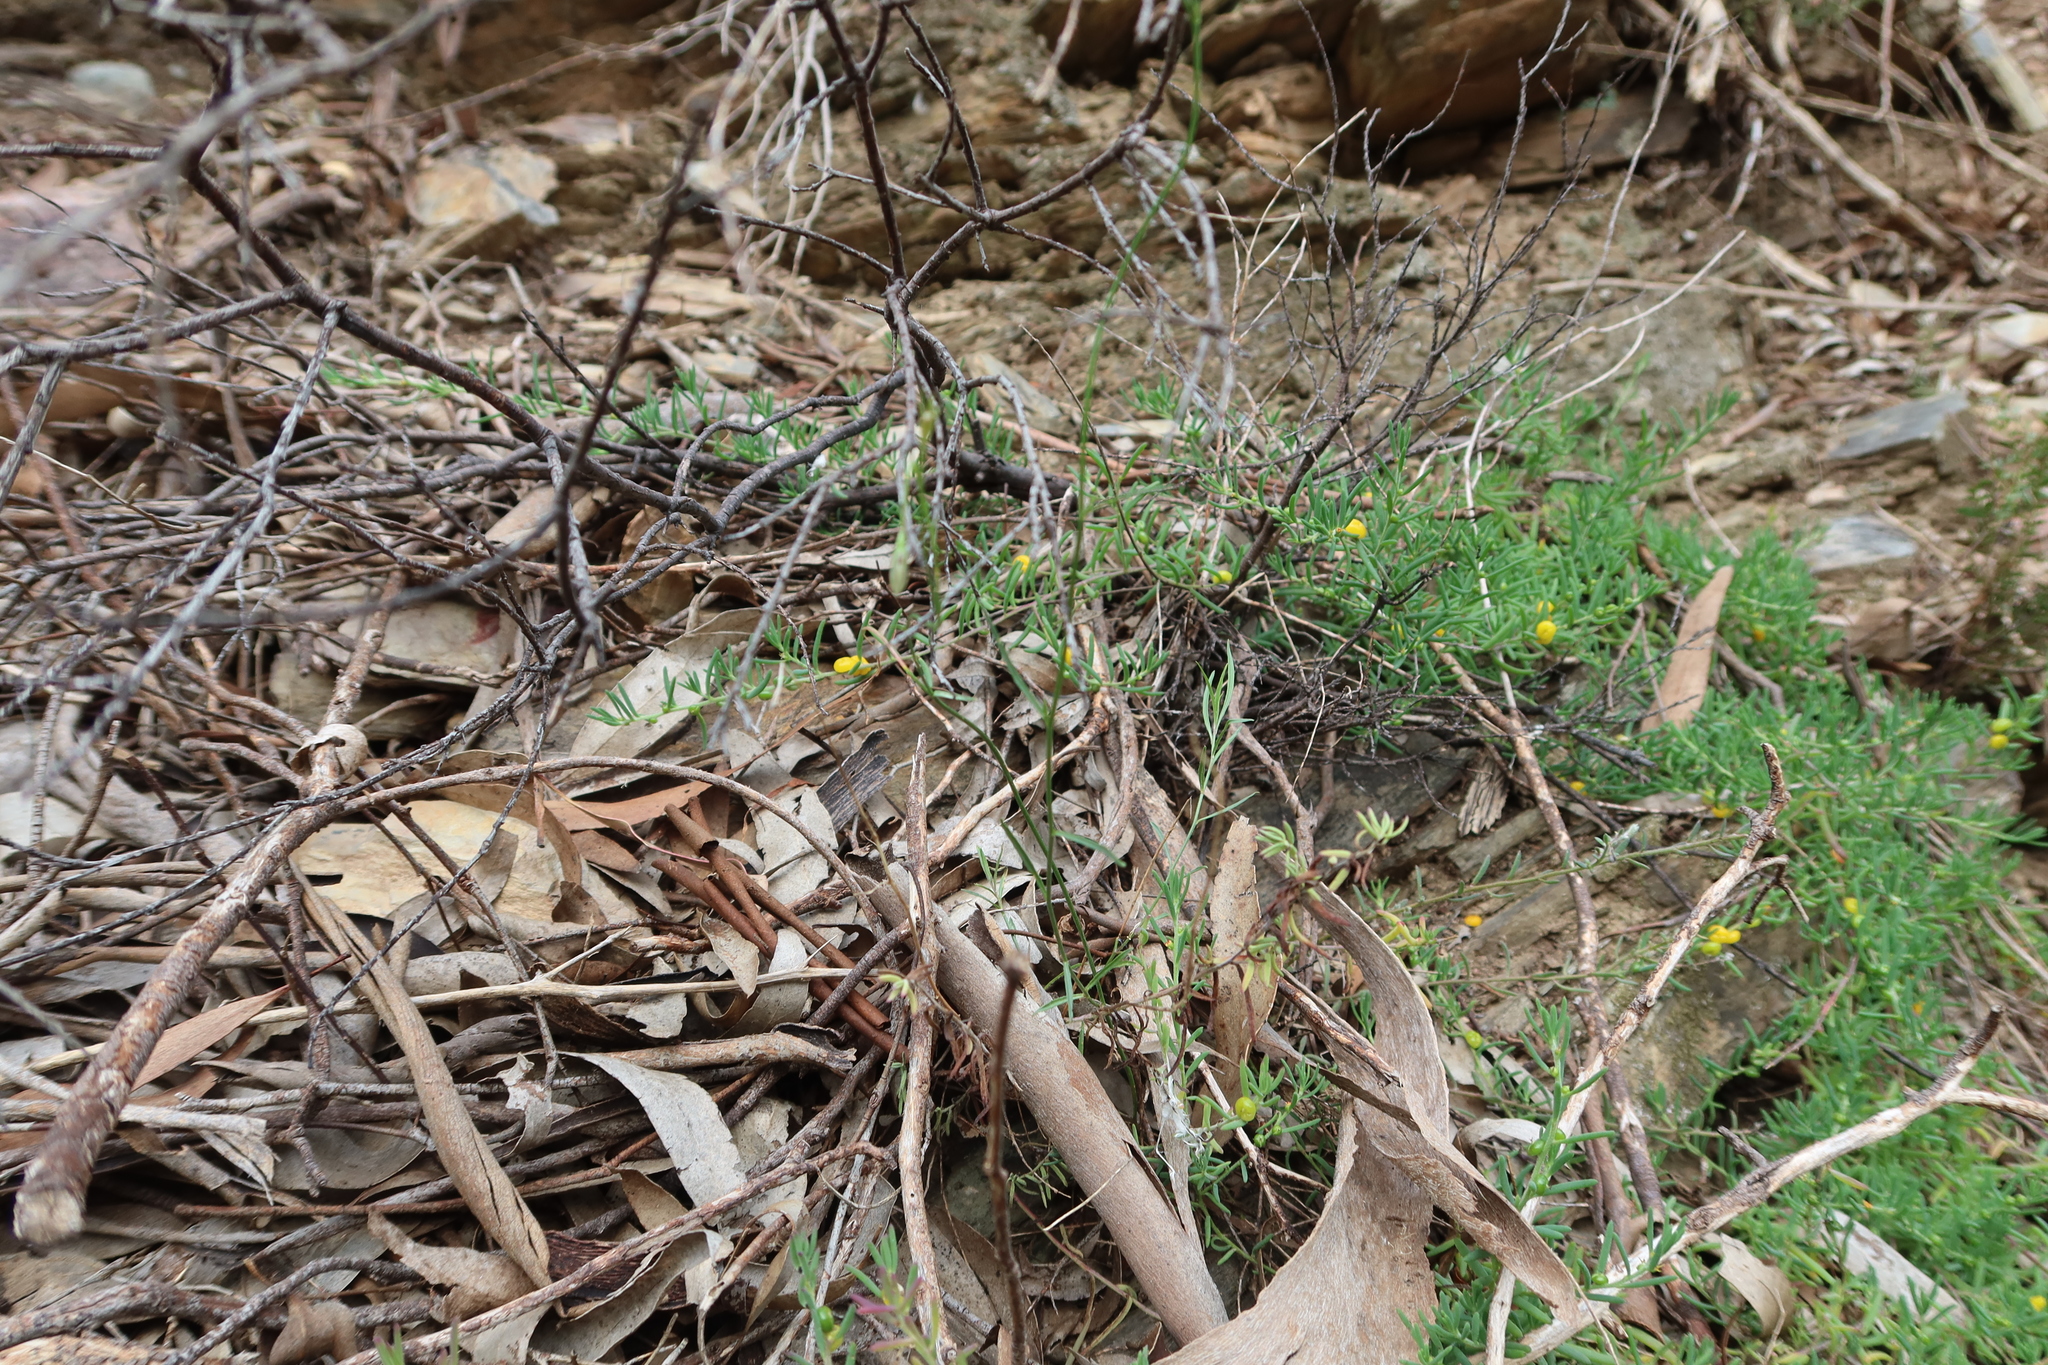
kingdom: Plantae
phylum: Tracheophyta
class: Magnoliopsida
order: Caryophyllales
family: Amaranthaceae
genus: Enchylaena
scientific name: Enchylaena tomentosa
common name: Ruby saltbush
